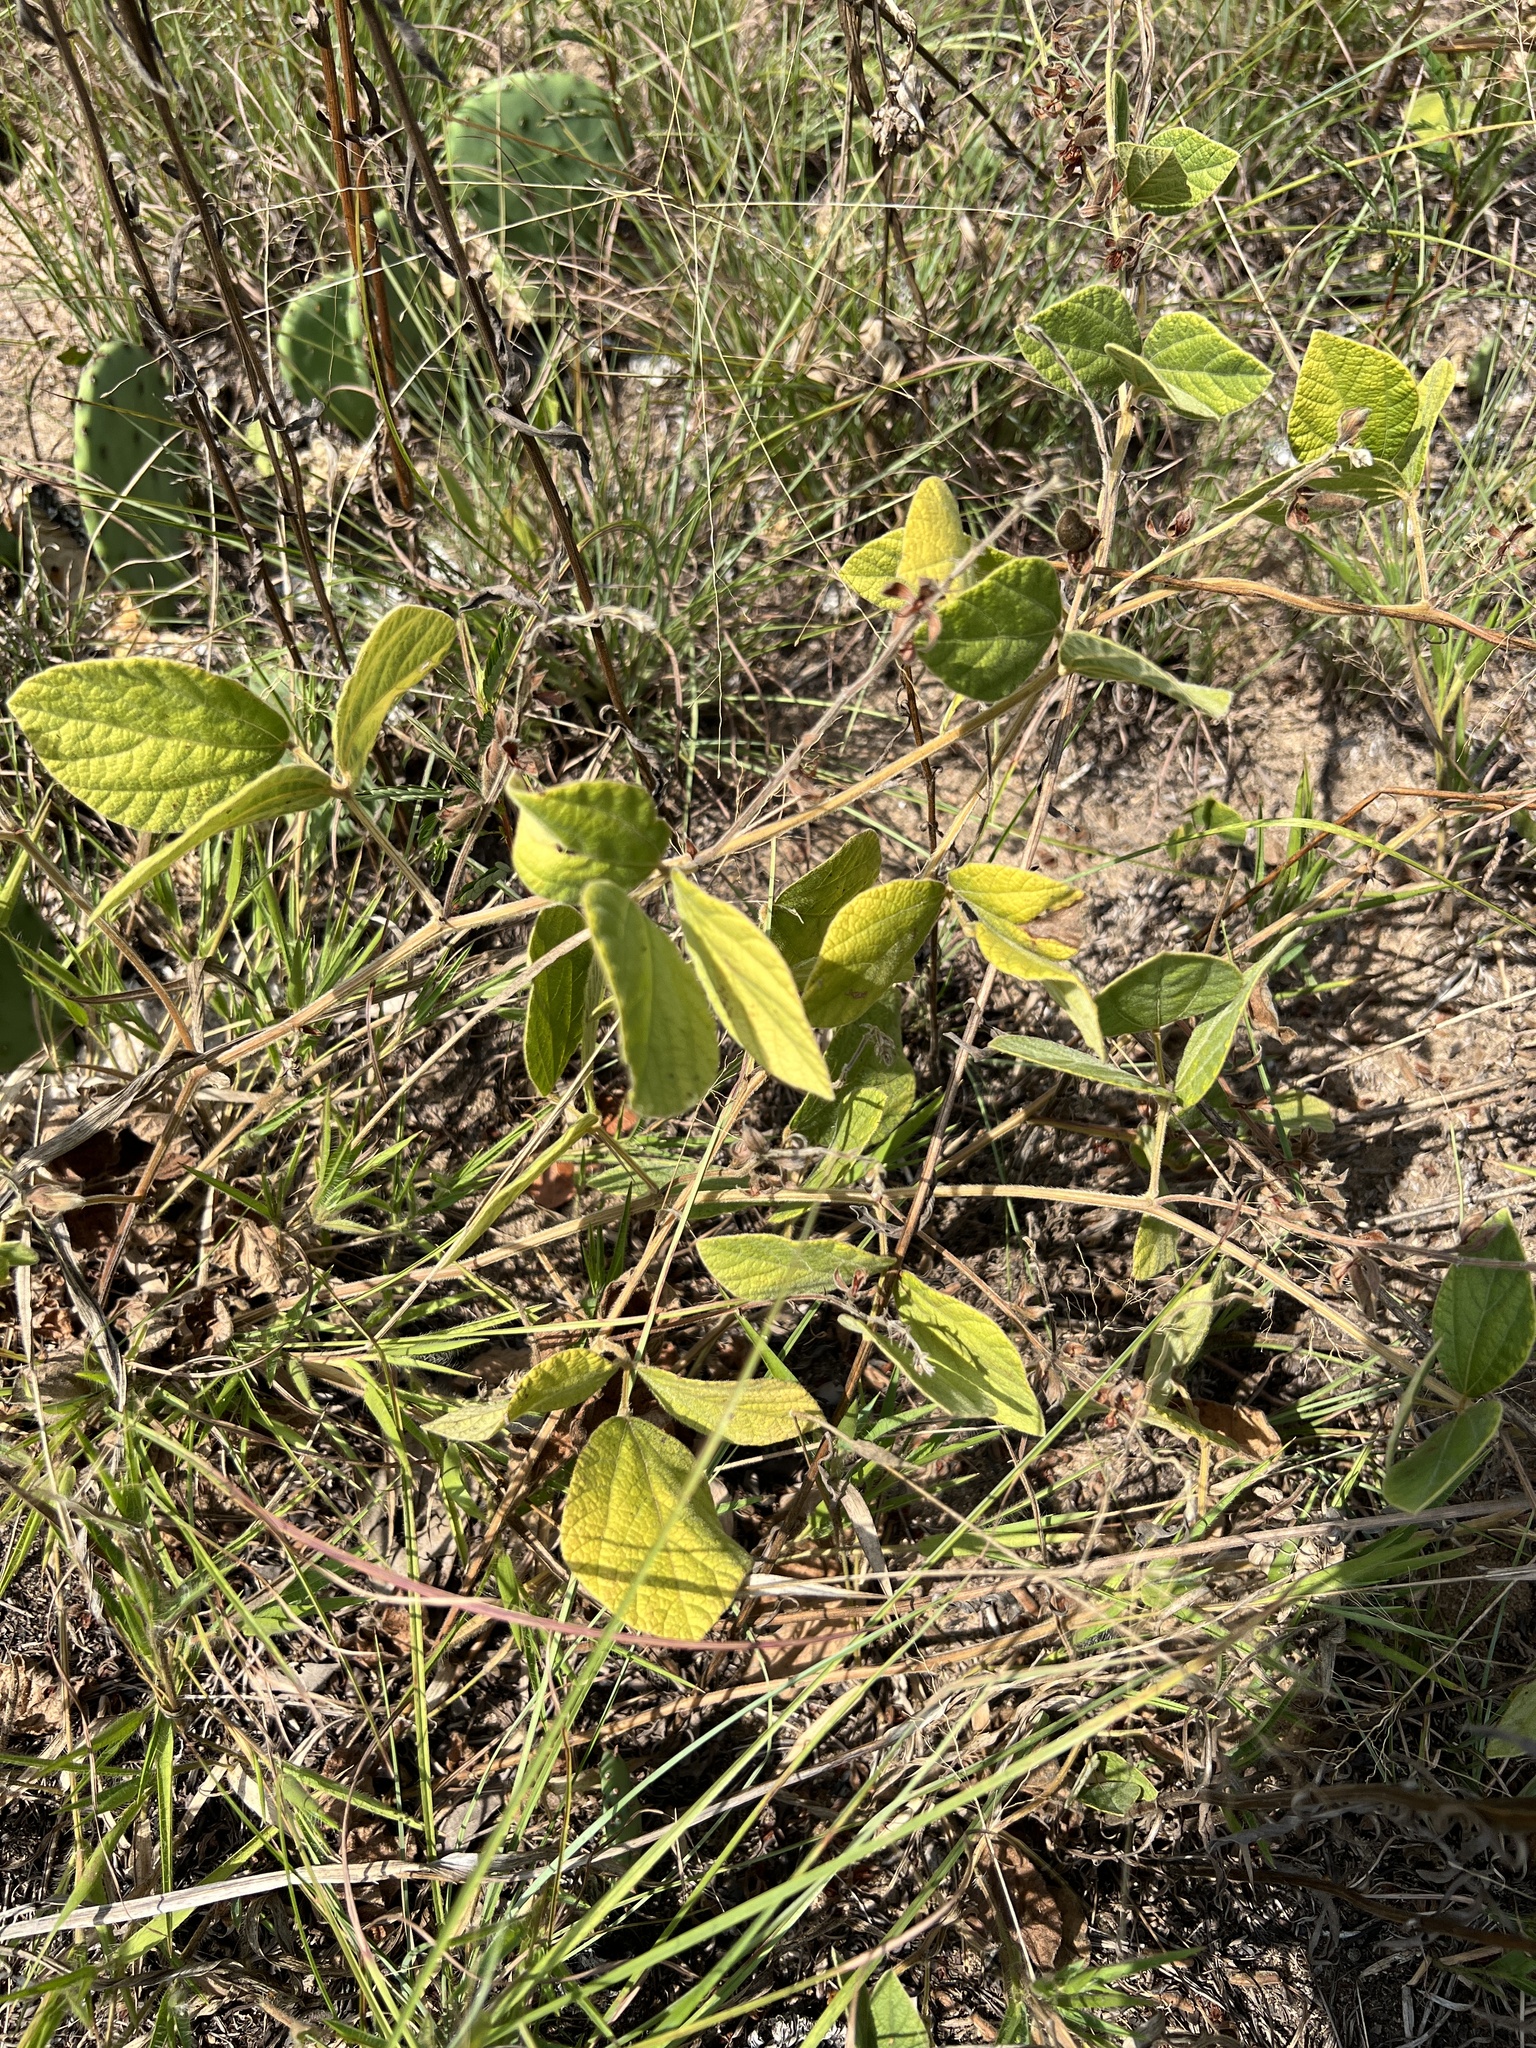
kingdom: Plantae
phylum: Tracheophyta
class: Magnoliopsida
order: Fabales
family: Fabaceae
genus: Rhynchosia
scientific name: Rhynchosia latifolia
